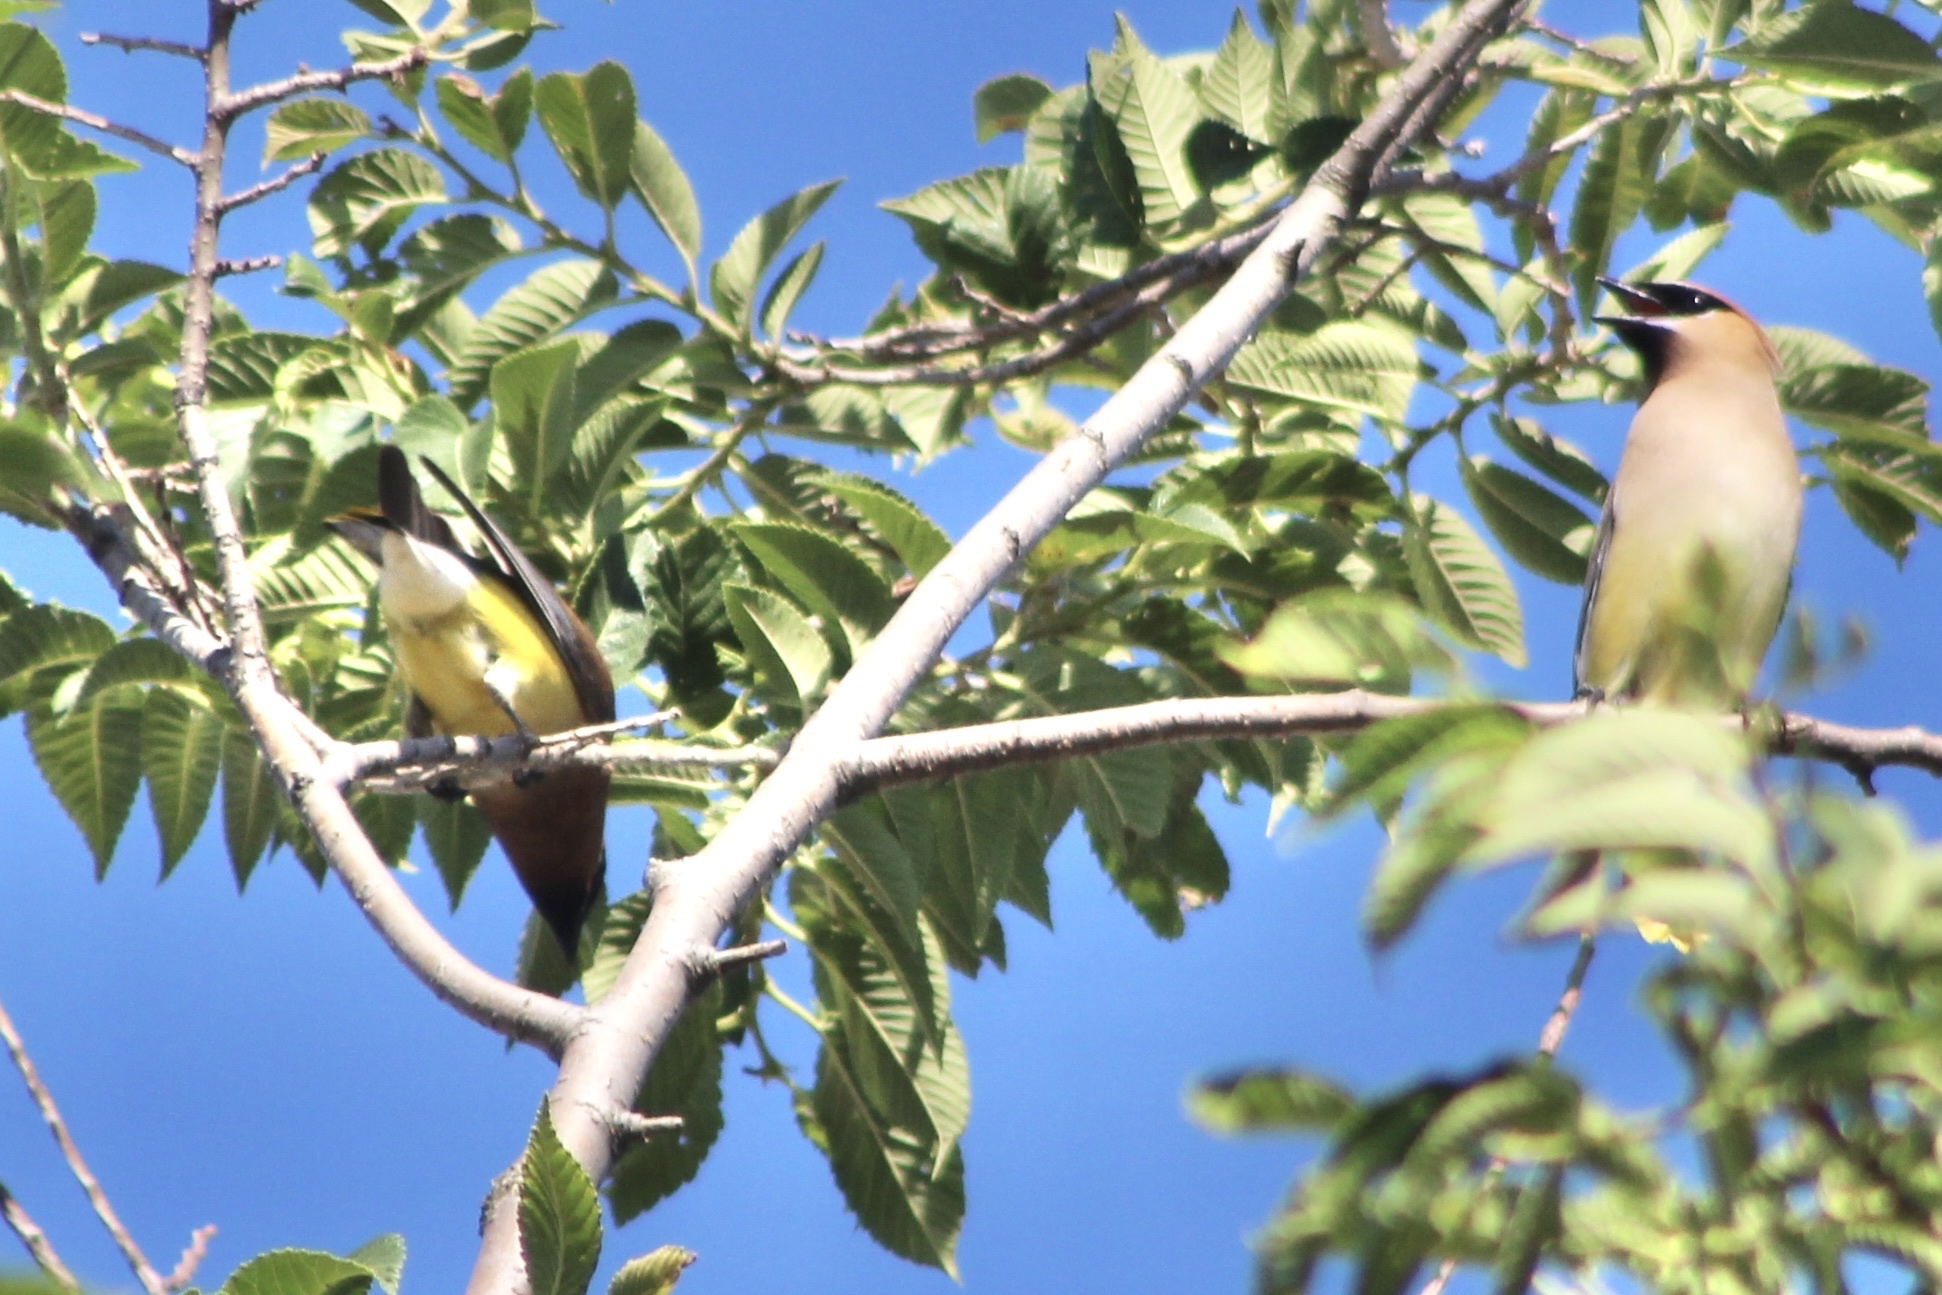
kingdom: Animalia
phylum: Chordata
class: Aves
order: Passeriformes
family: Bombycillidae
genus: Bombycilla
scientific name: Bombycilla cedrorum
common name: Cedar waxwing
